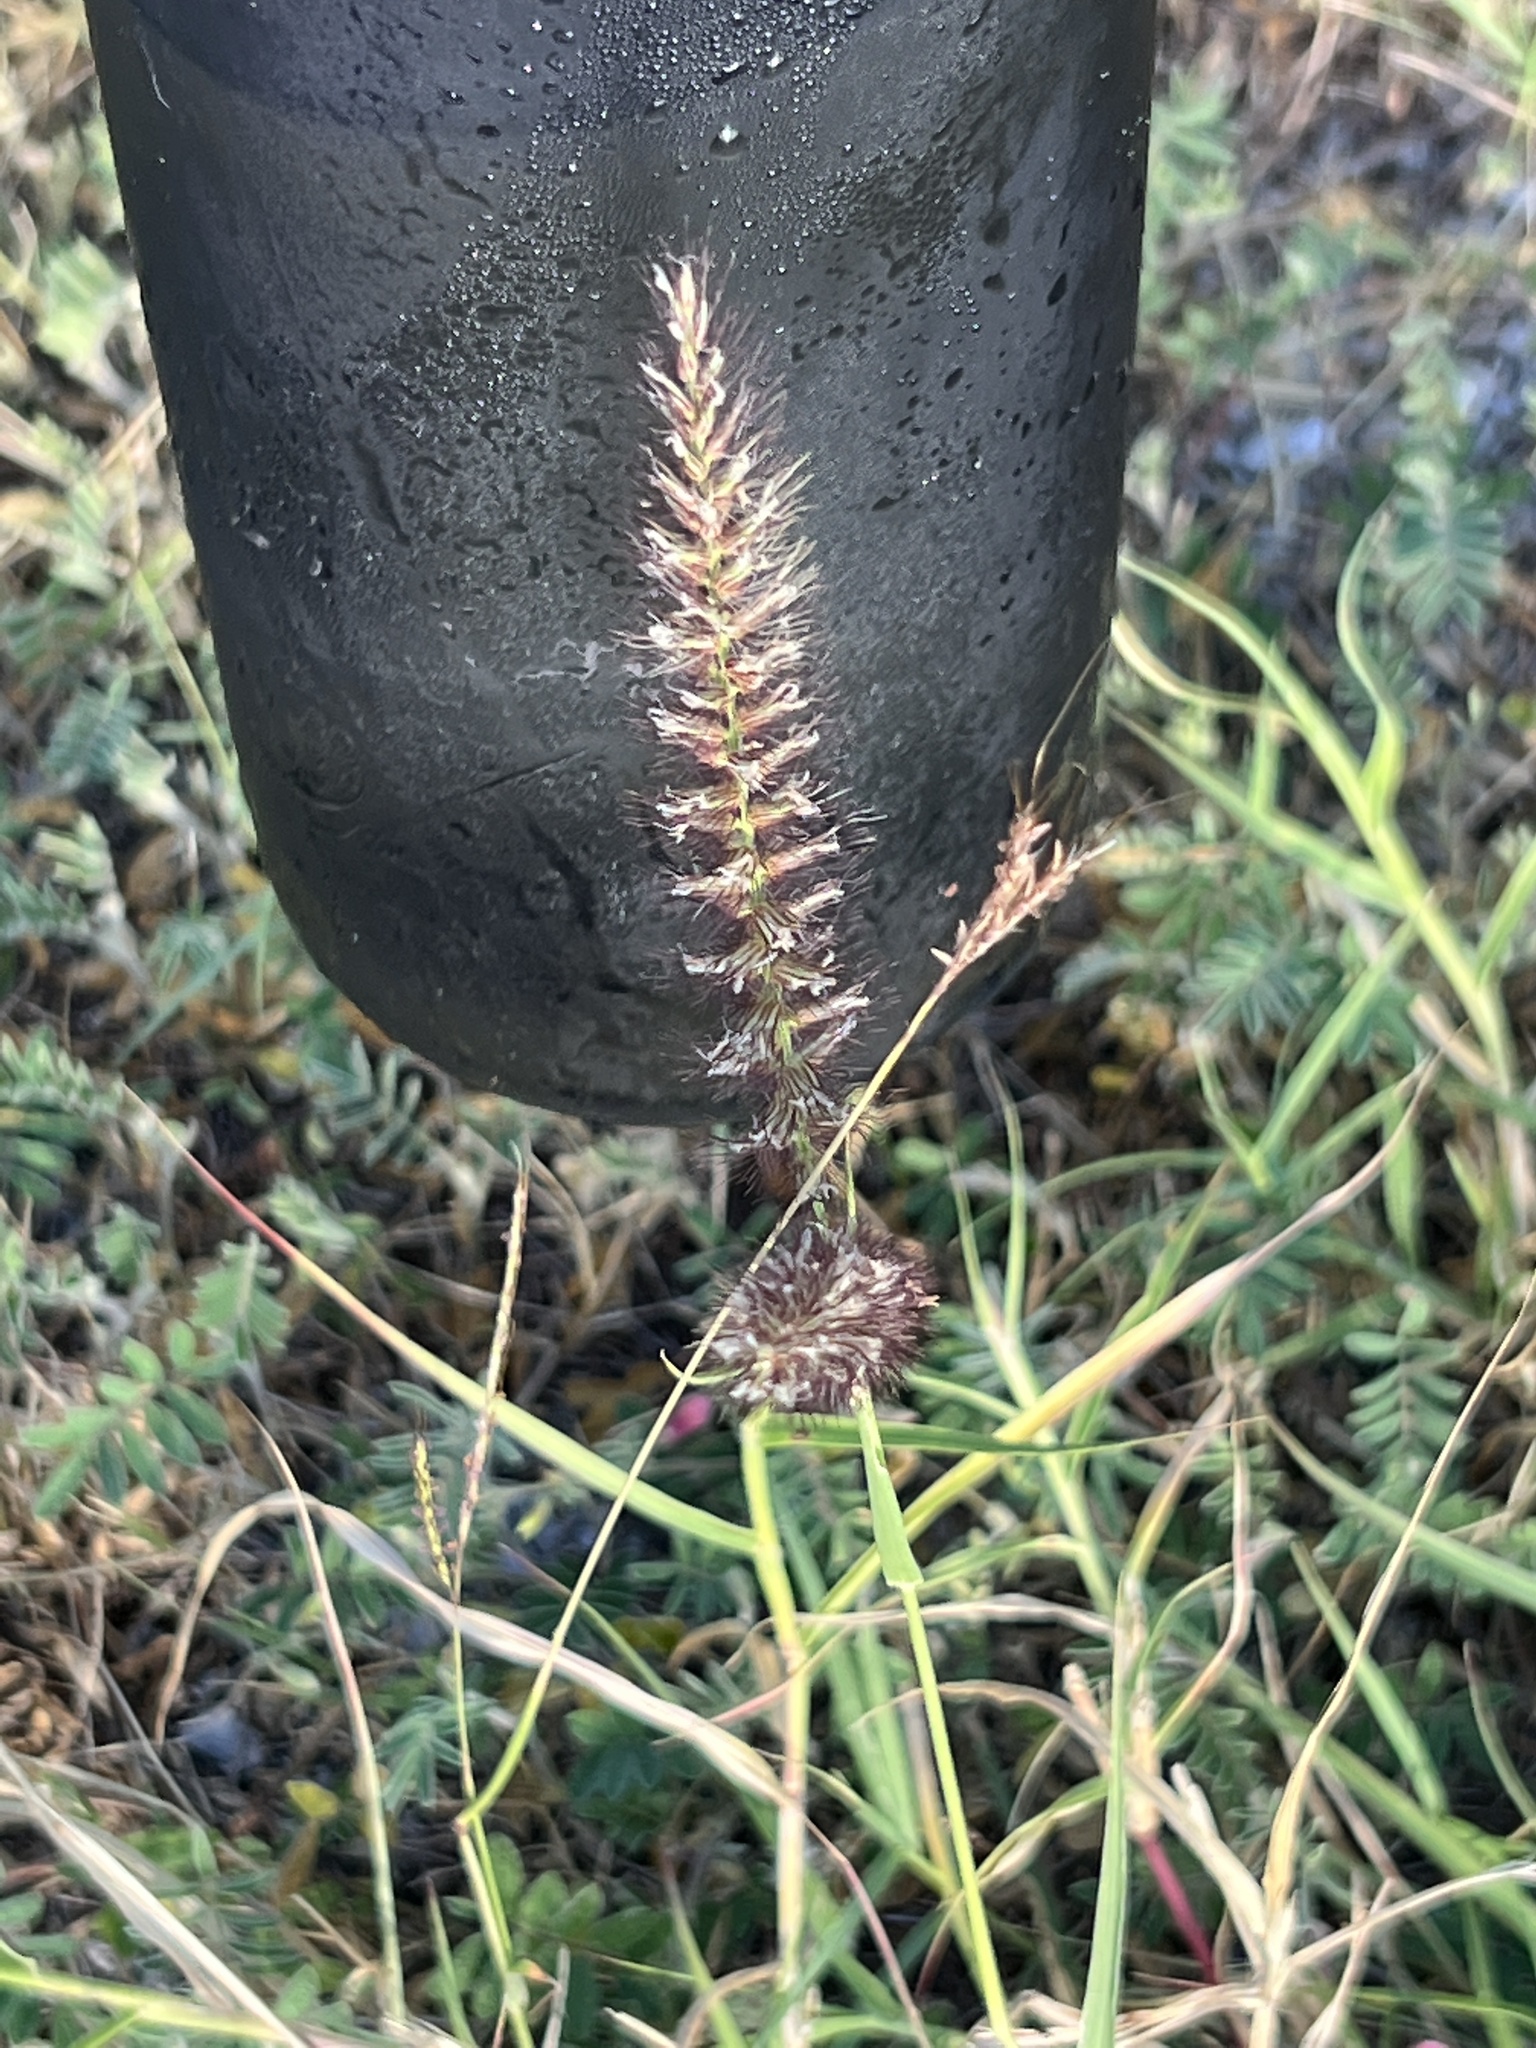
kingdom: Plantae
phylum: Tracheophyta
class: Liliopsida
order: Poales
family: Poaceae
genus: Cenchrus
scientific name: Cenchrus ciliaris
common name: Buffelgrass
